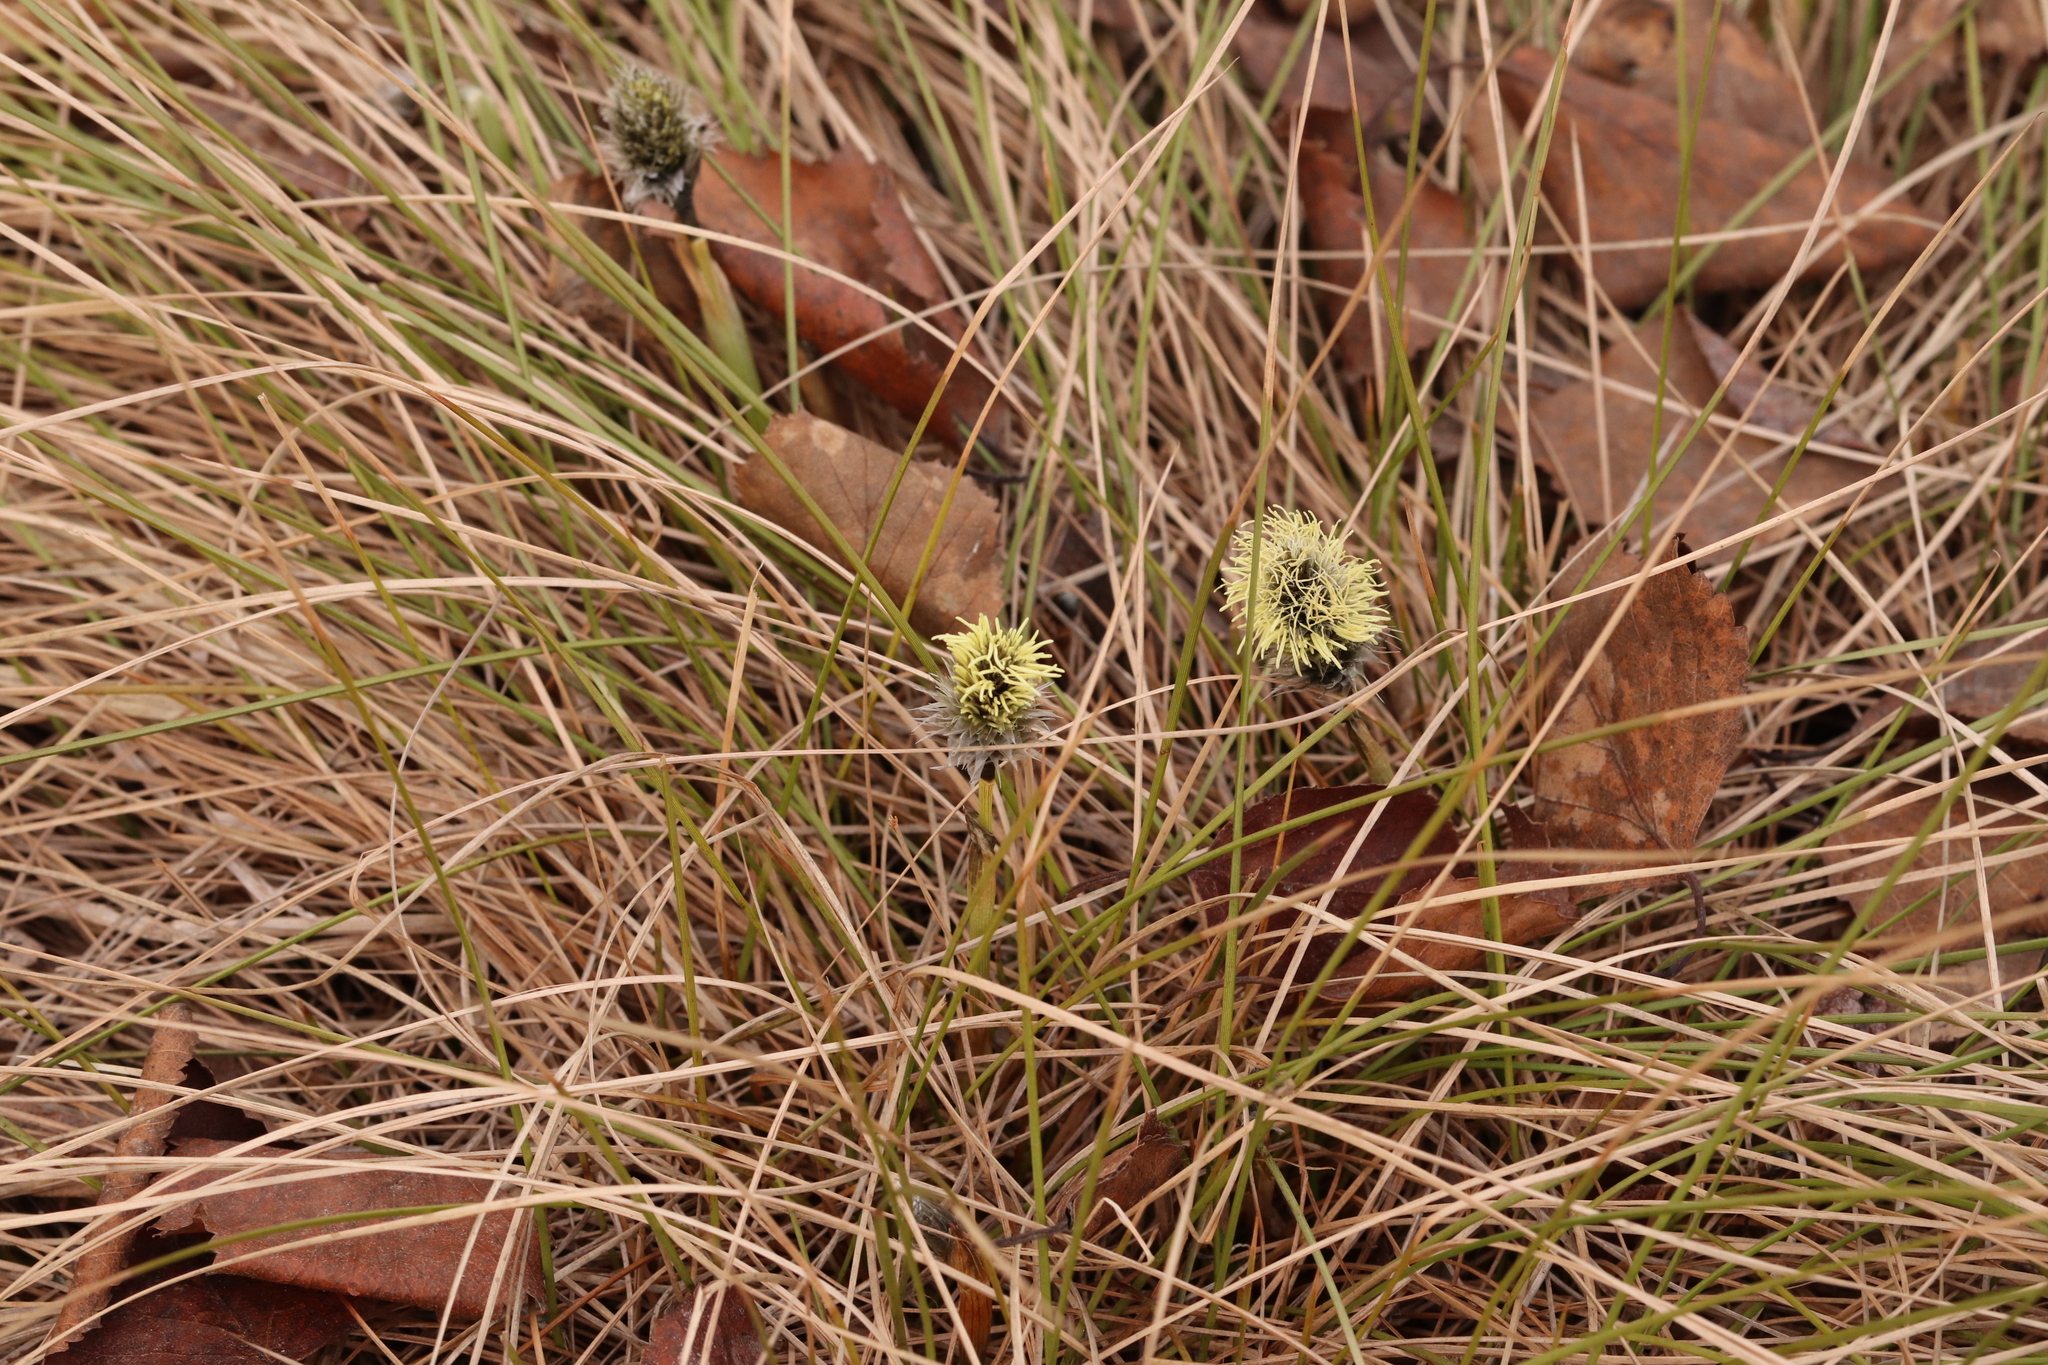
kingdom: Plantae
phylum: Tracheophyta
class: Liliopsida
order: Poales
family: Cyperaceae
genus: Eriophorum
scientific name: Eriophorum vaginatum
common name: Hare's-tail cottongrass
